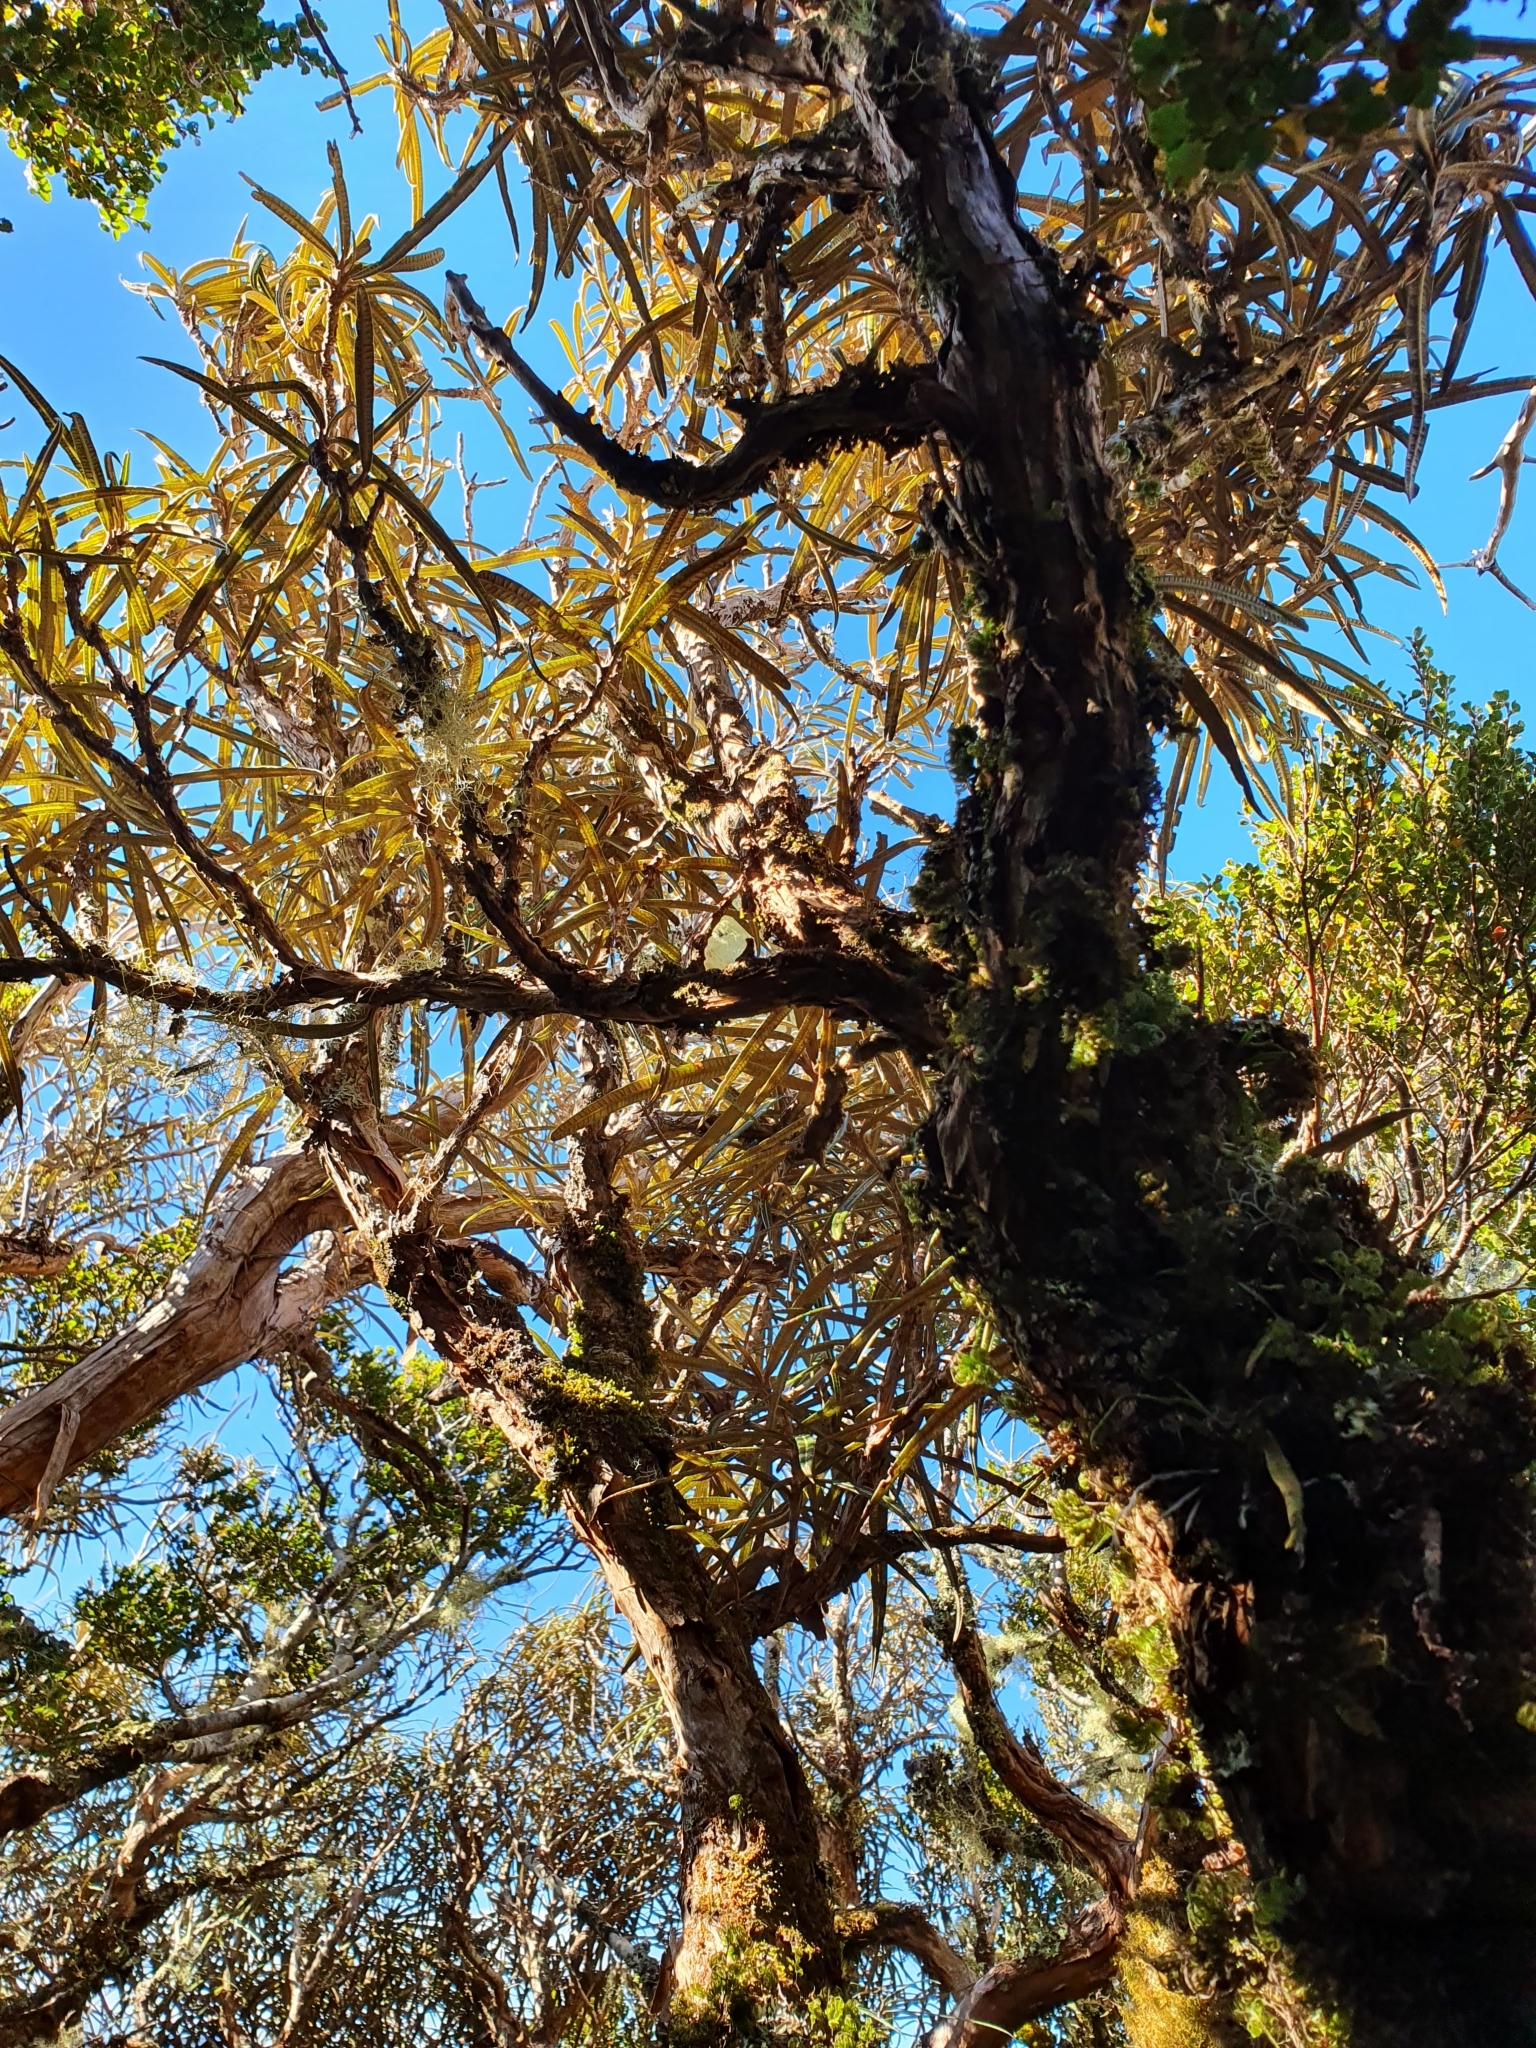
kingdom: Plantae
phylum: Tracheophyta
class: Magnoliopsida
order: Asterales
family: Asteraceae
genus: Olearia
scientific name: Olearia lacunosa
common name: Lancewood tree daisy
